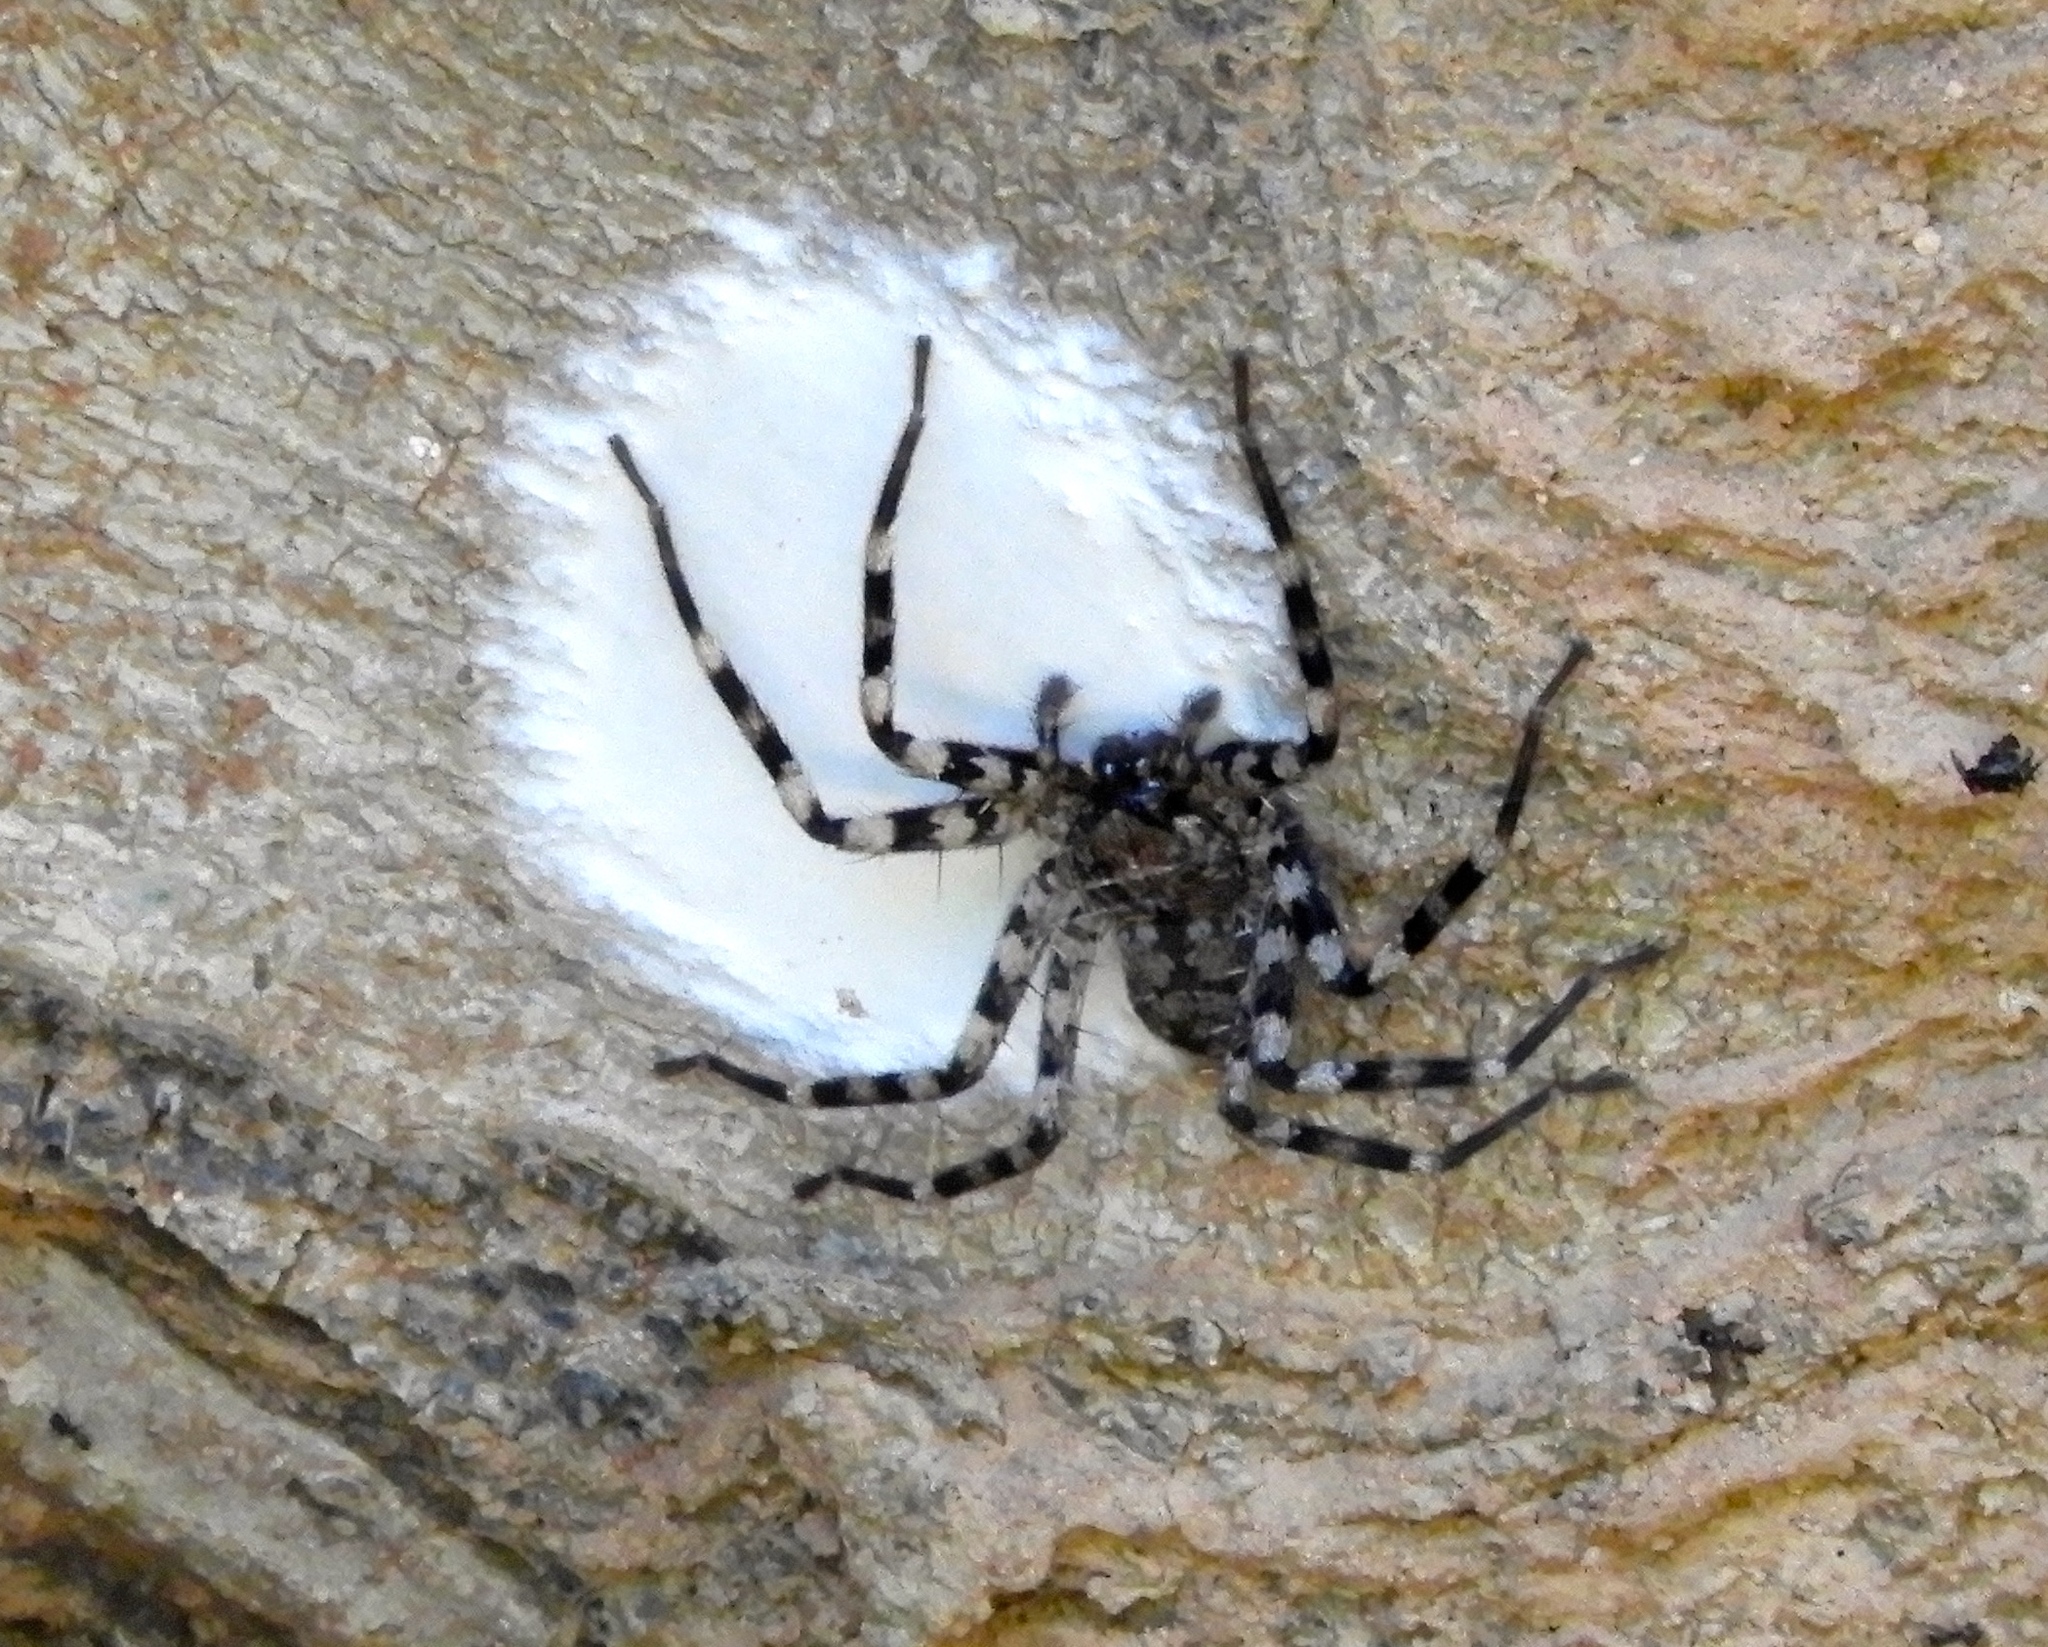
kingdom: Animalia
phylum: Arthropoda
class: Arachnida
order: Araneae
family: Selenopidae
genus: Selenops
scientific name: Selenops
